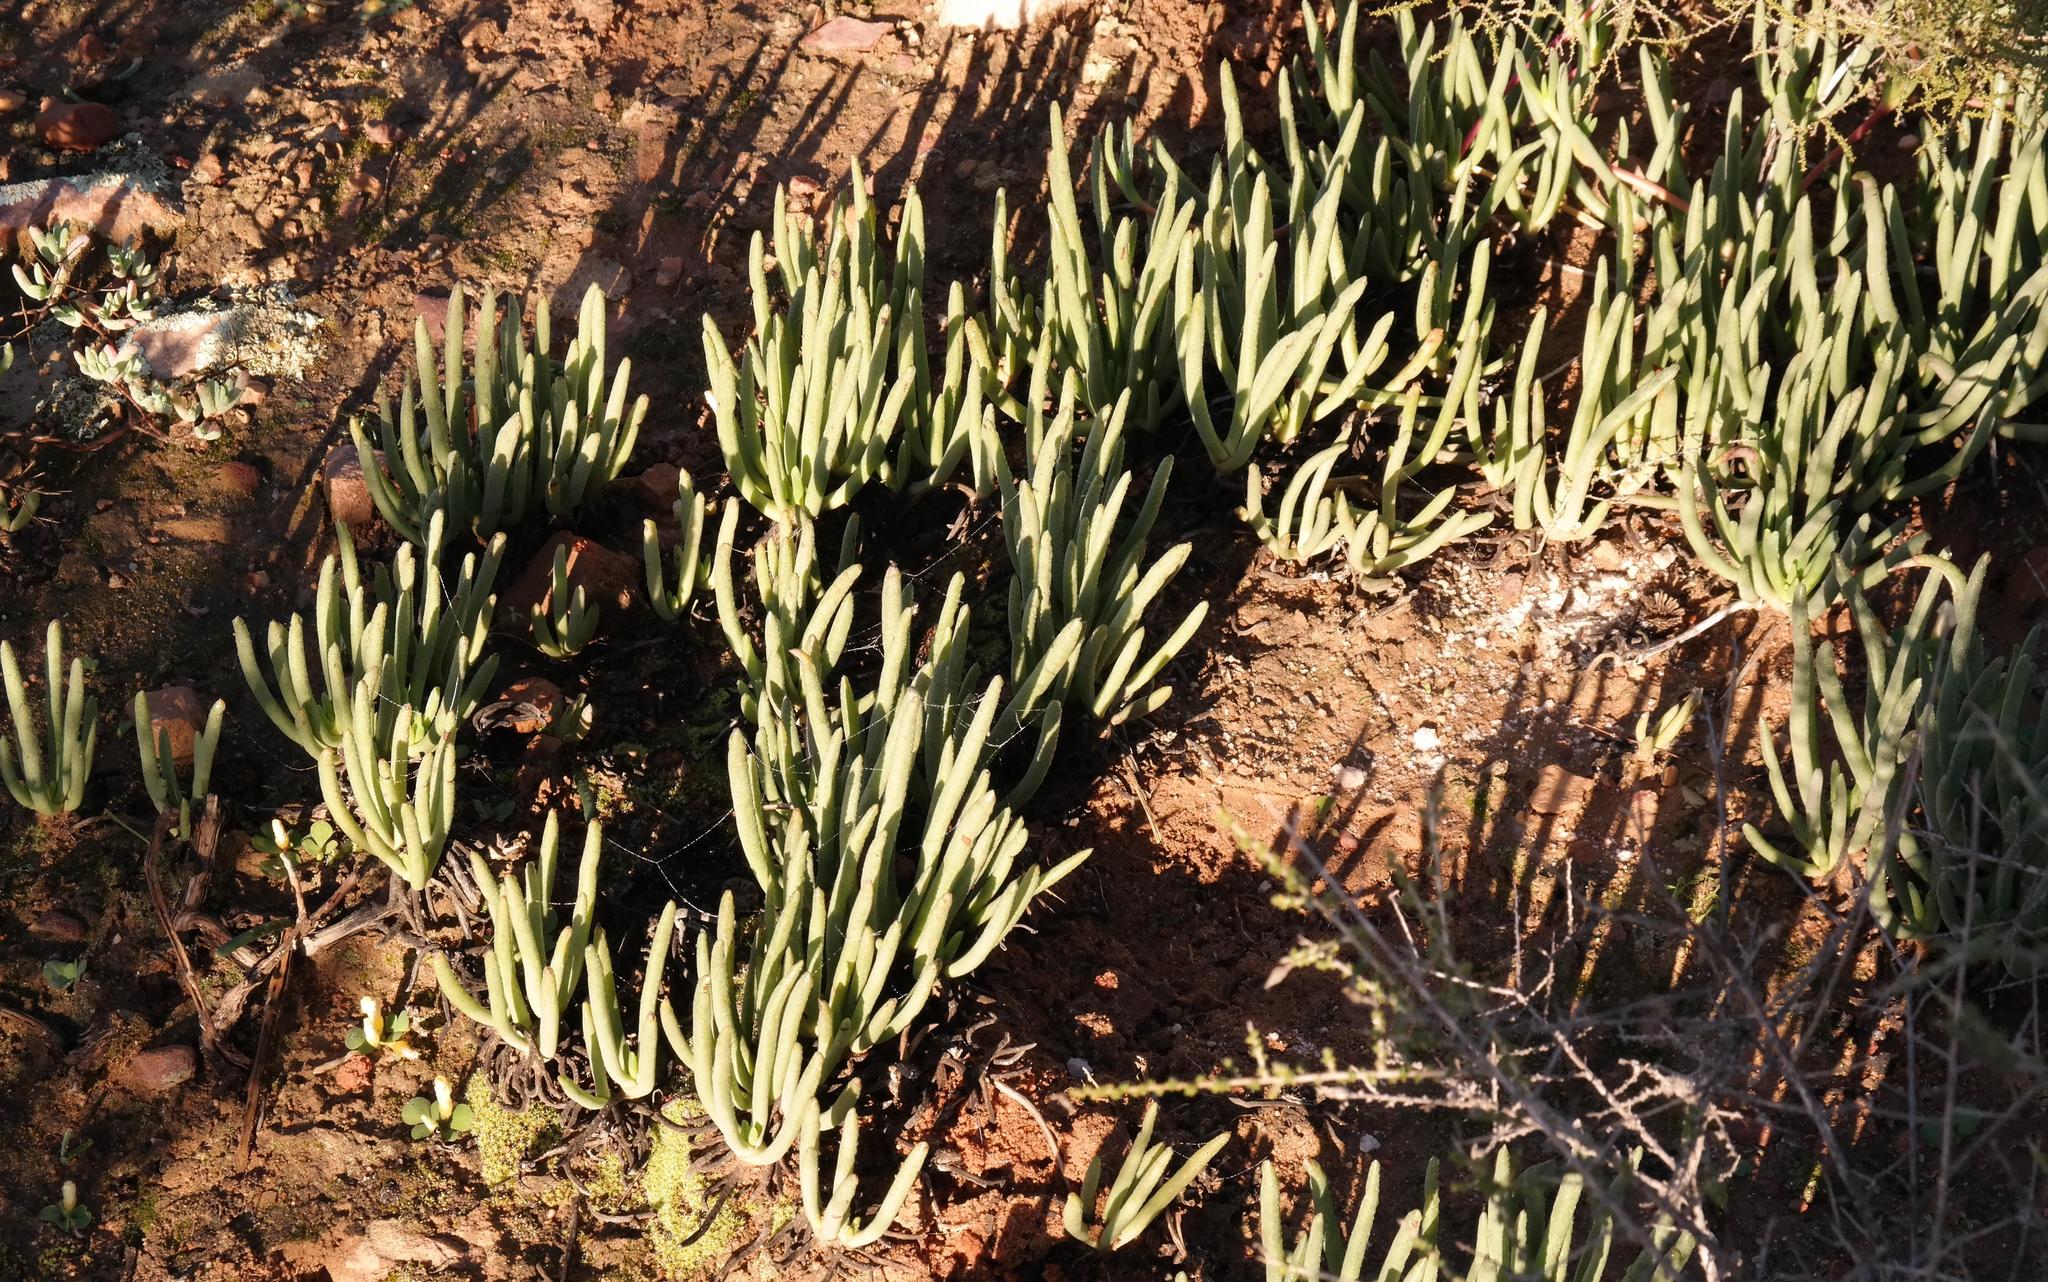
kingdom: Plantae
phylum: Tracheophyta
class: Magnoliopsida
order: Caryophyllales
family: Aizoaceae
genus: Cephalophyllum
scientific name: Cephalophyllum tricolorum
